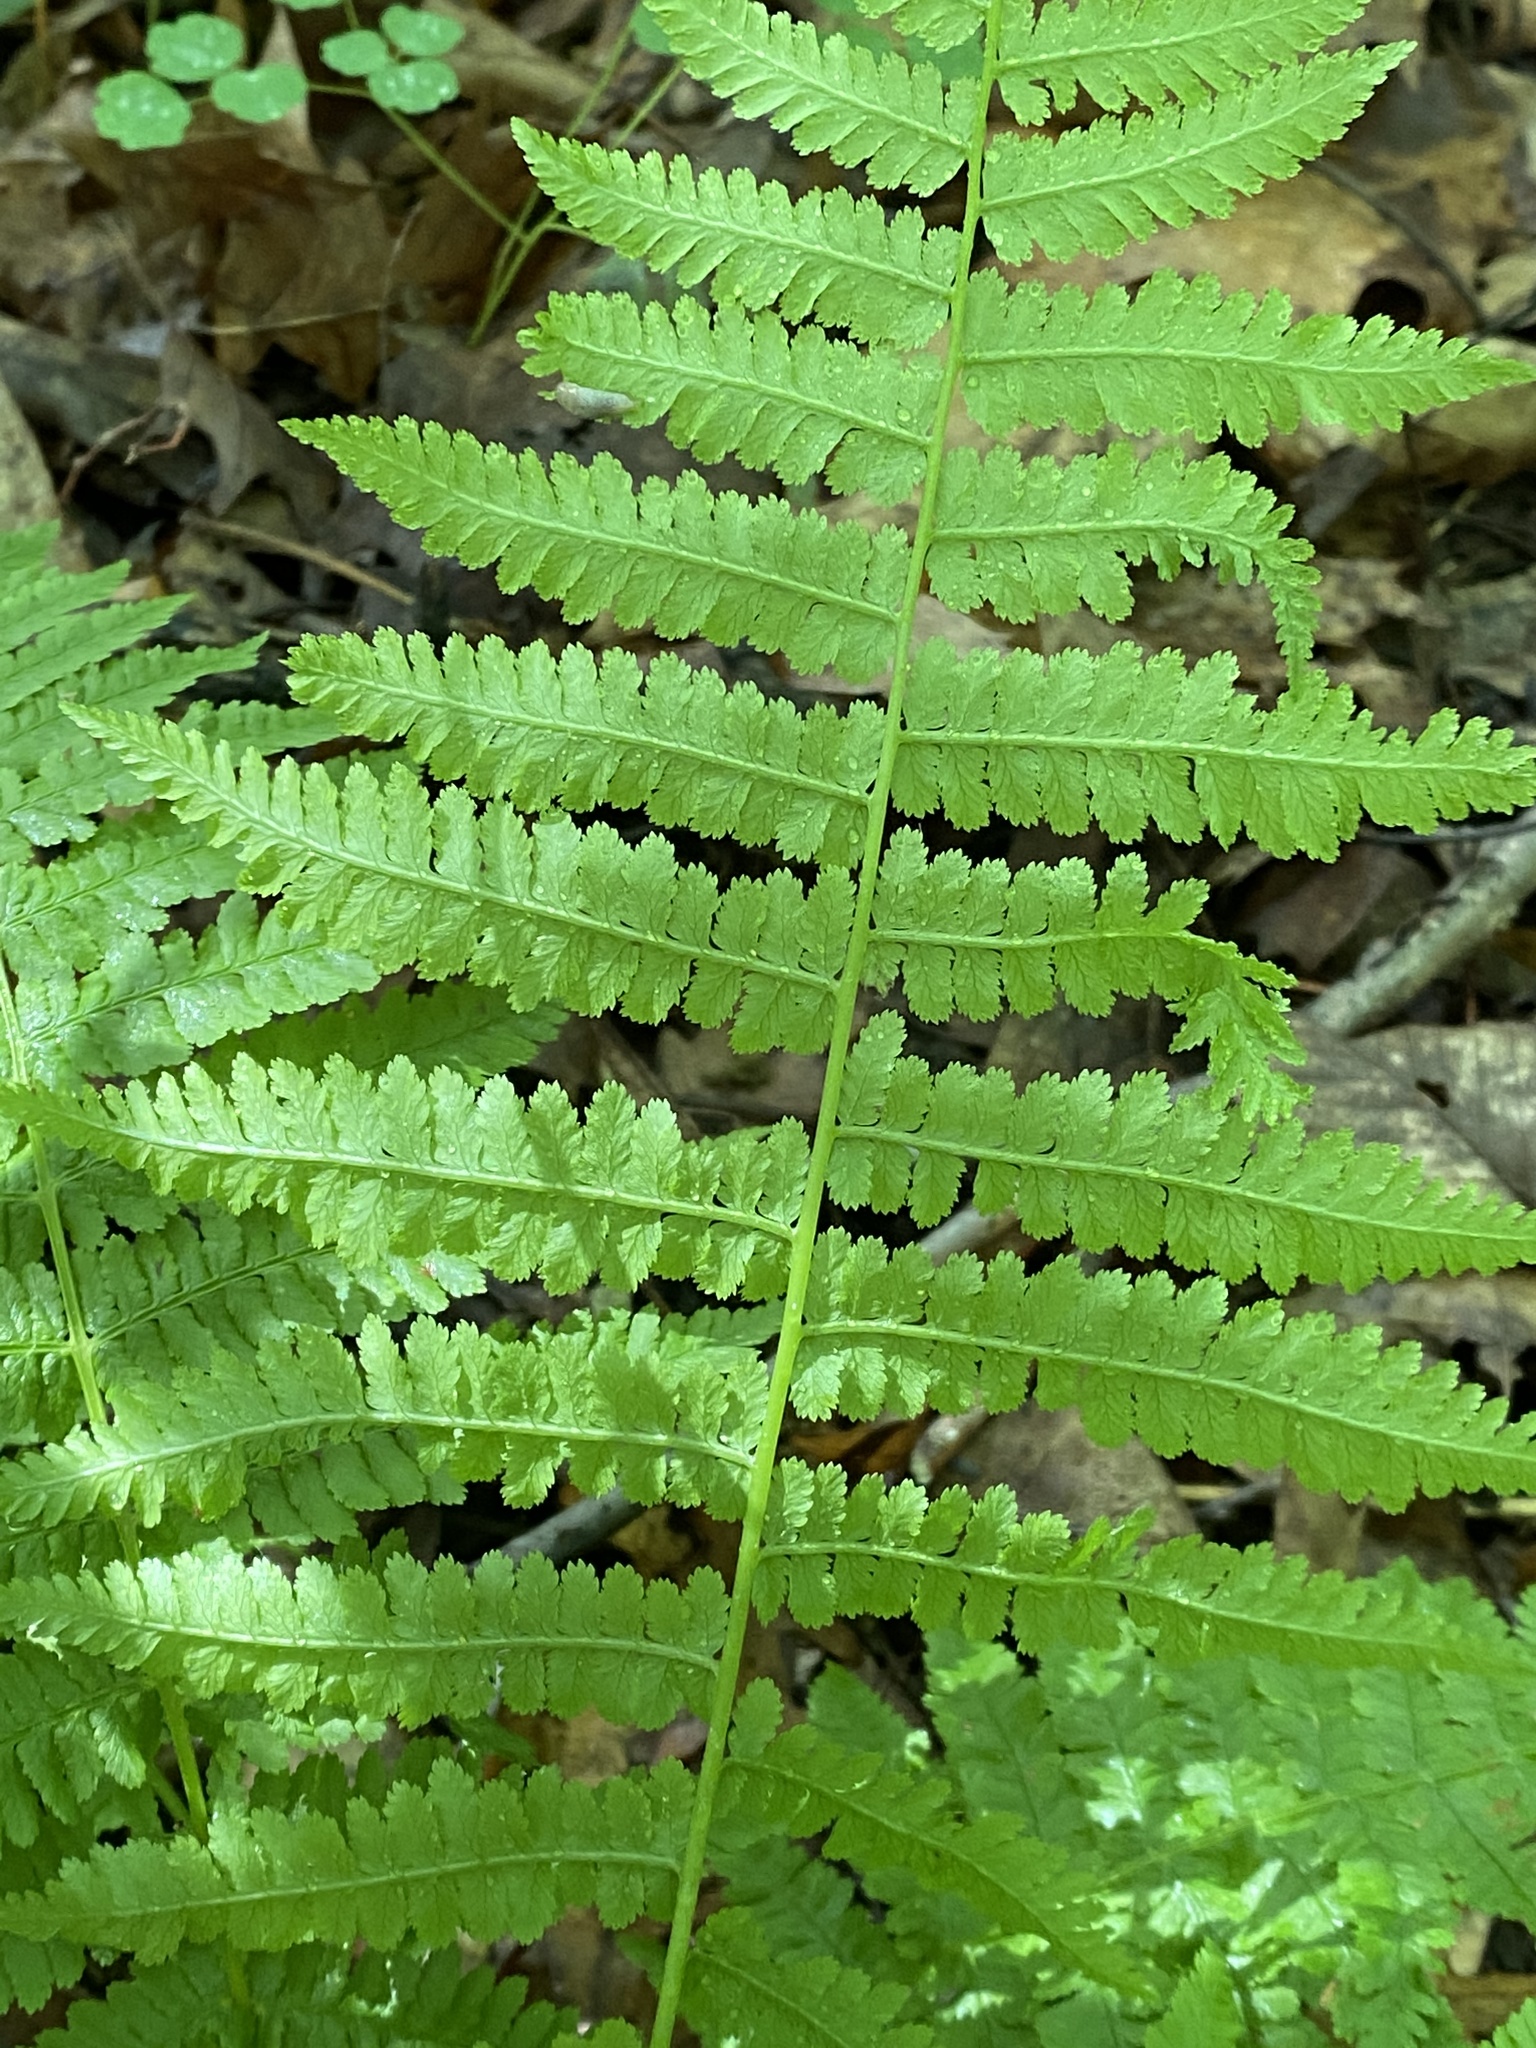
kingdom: Plantae
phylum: Tracheophyta
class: Polypodiopsida
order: Polypodiales
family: Athyriaceae
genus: Athyrium
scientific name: Athyrium angustum
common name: Northern lady fern
